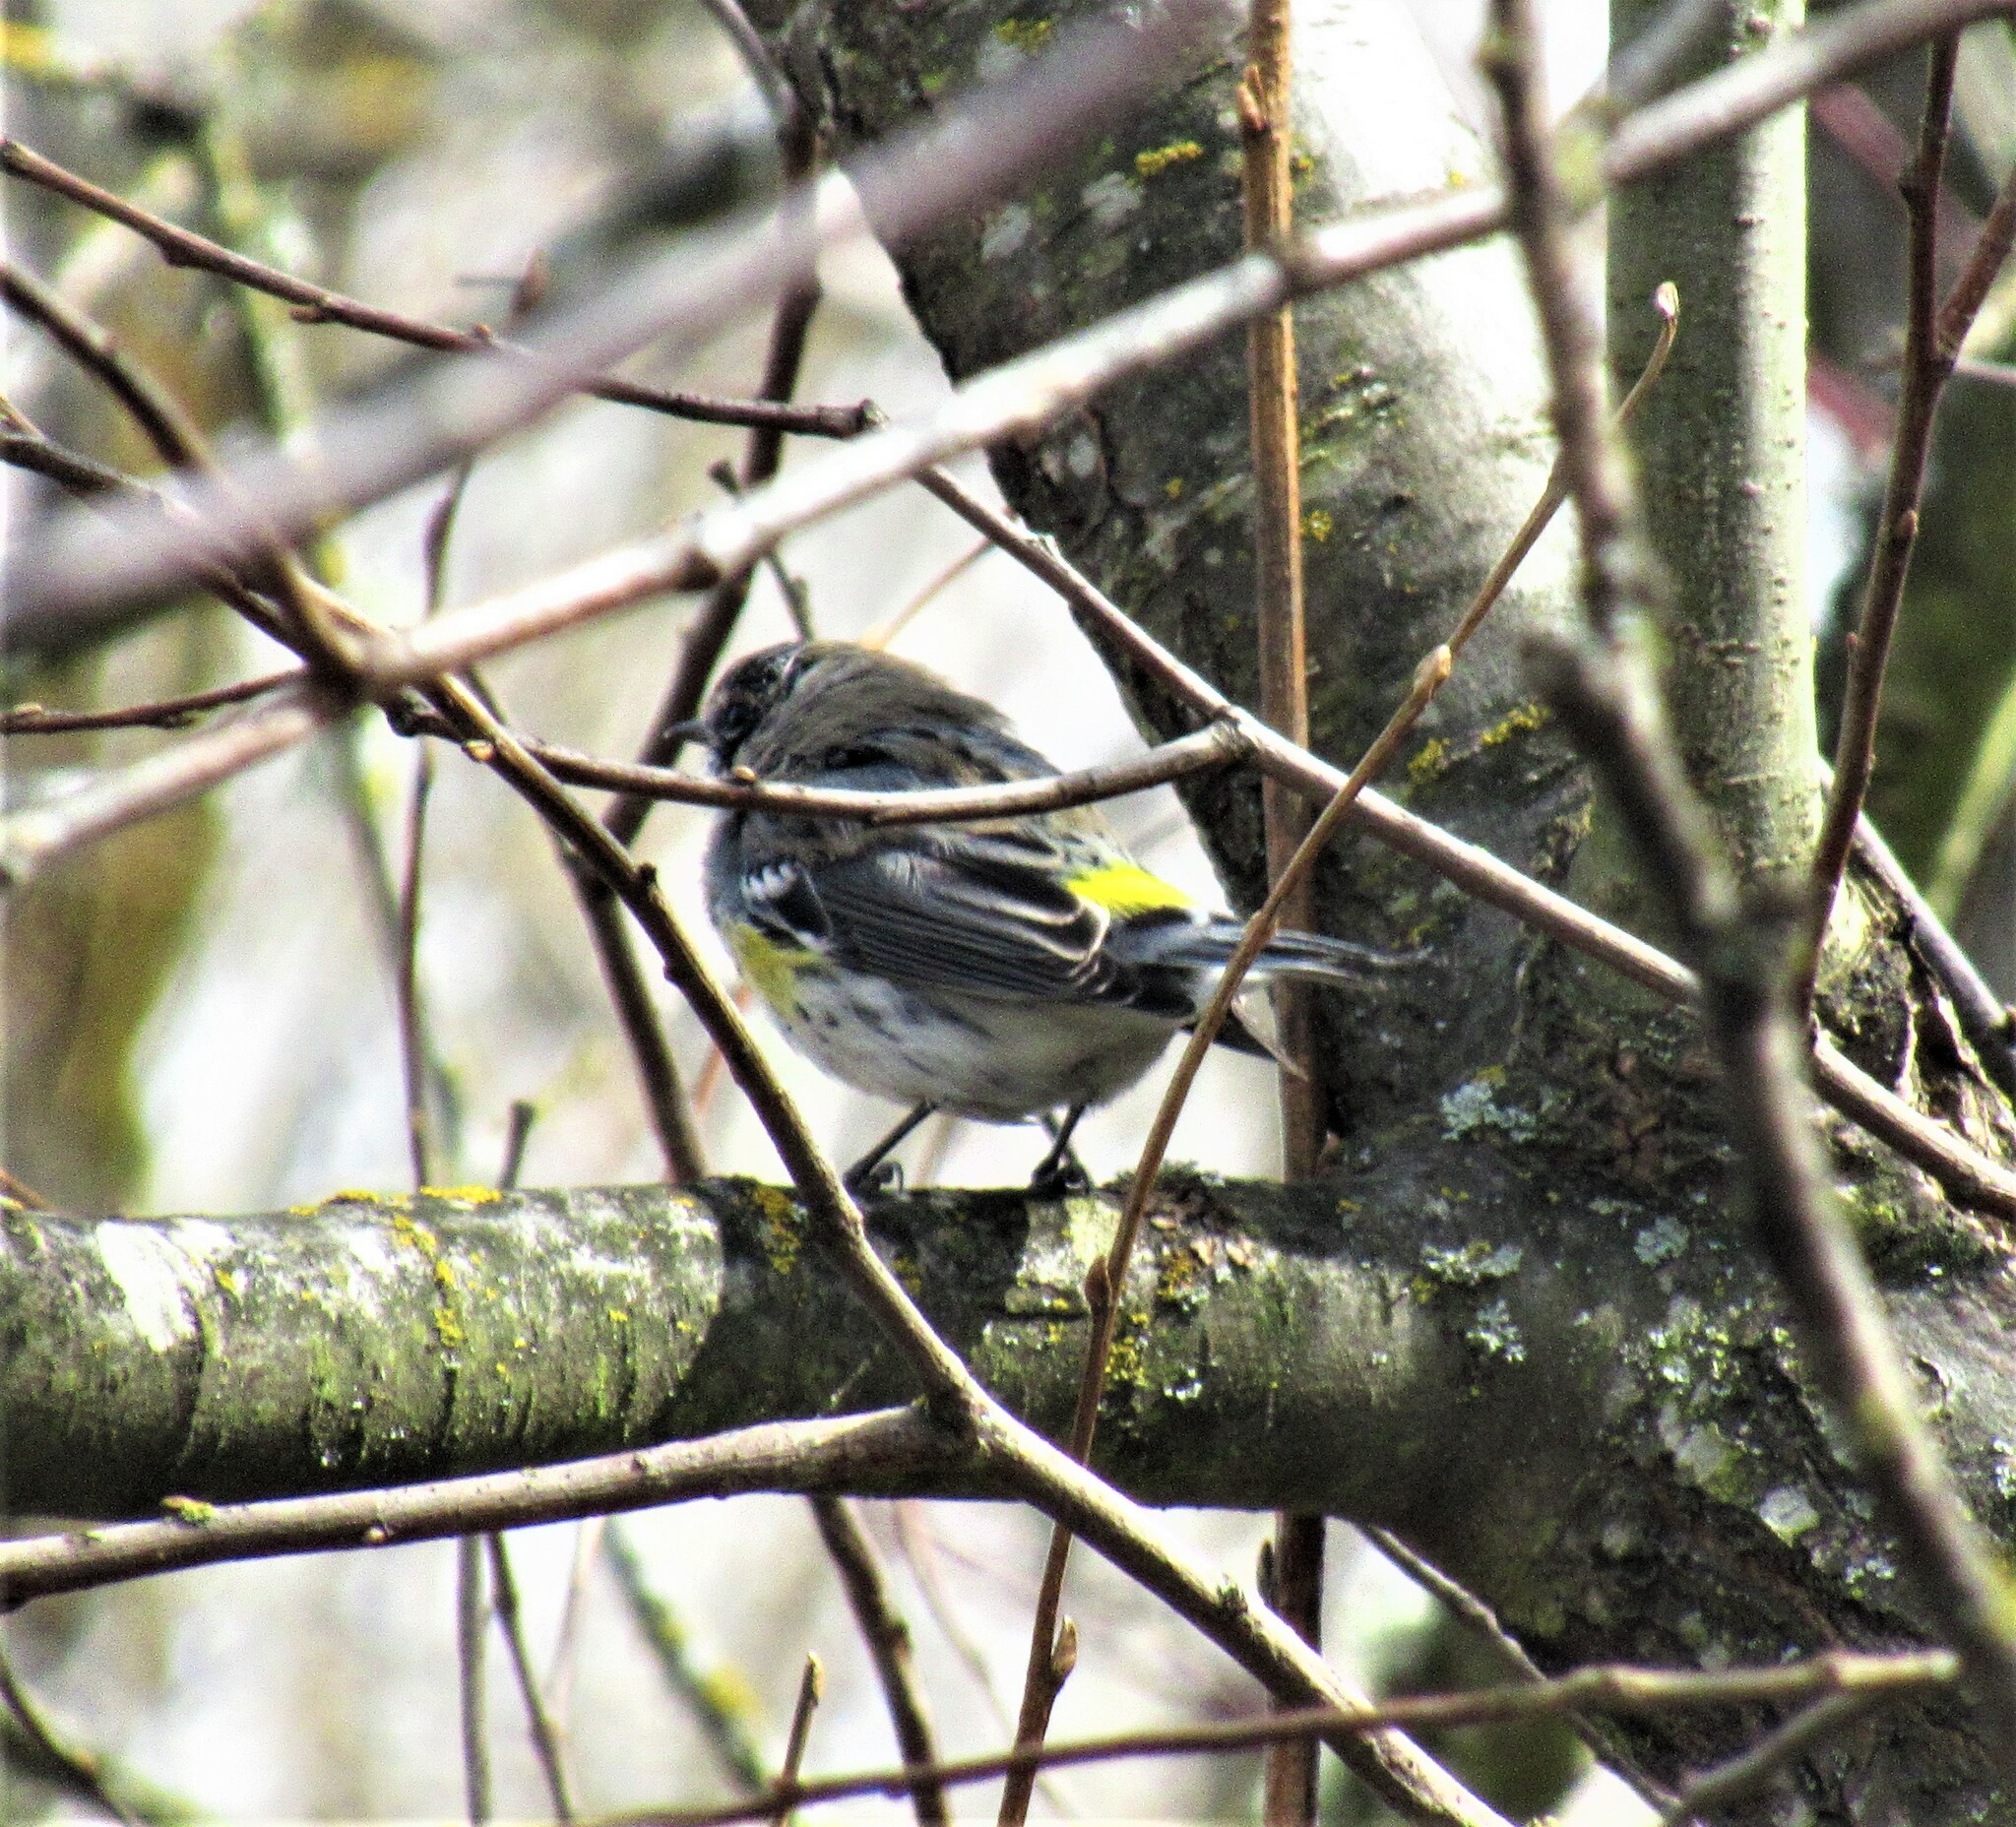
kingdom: Animalia
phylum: Chordata
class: Aves
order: Passeriformes
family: Parulidae
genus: Setophaga
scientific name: Setophaga coronata
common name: Myrtle warbler
